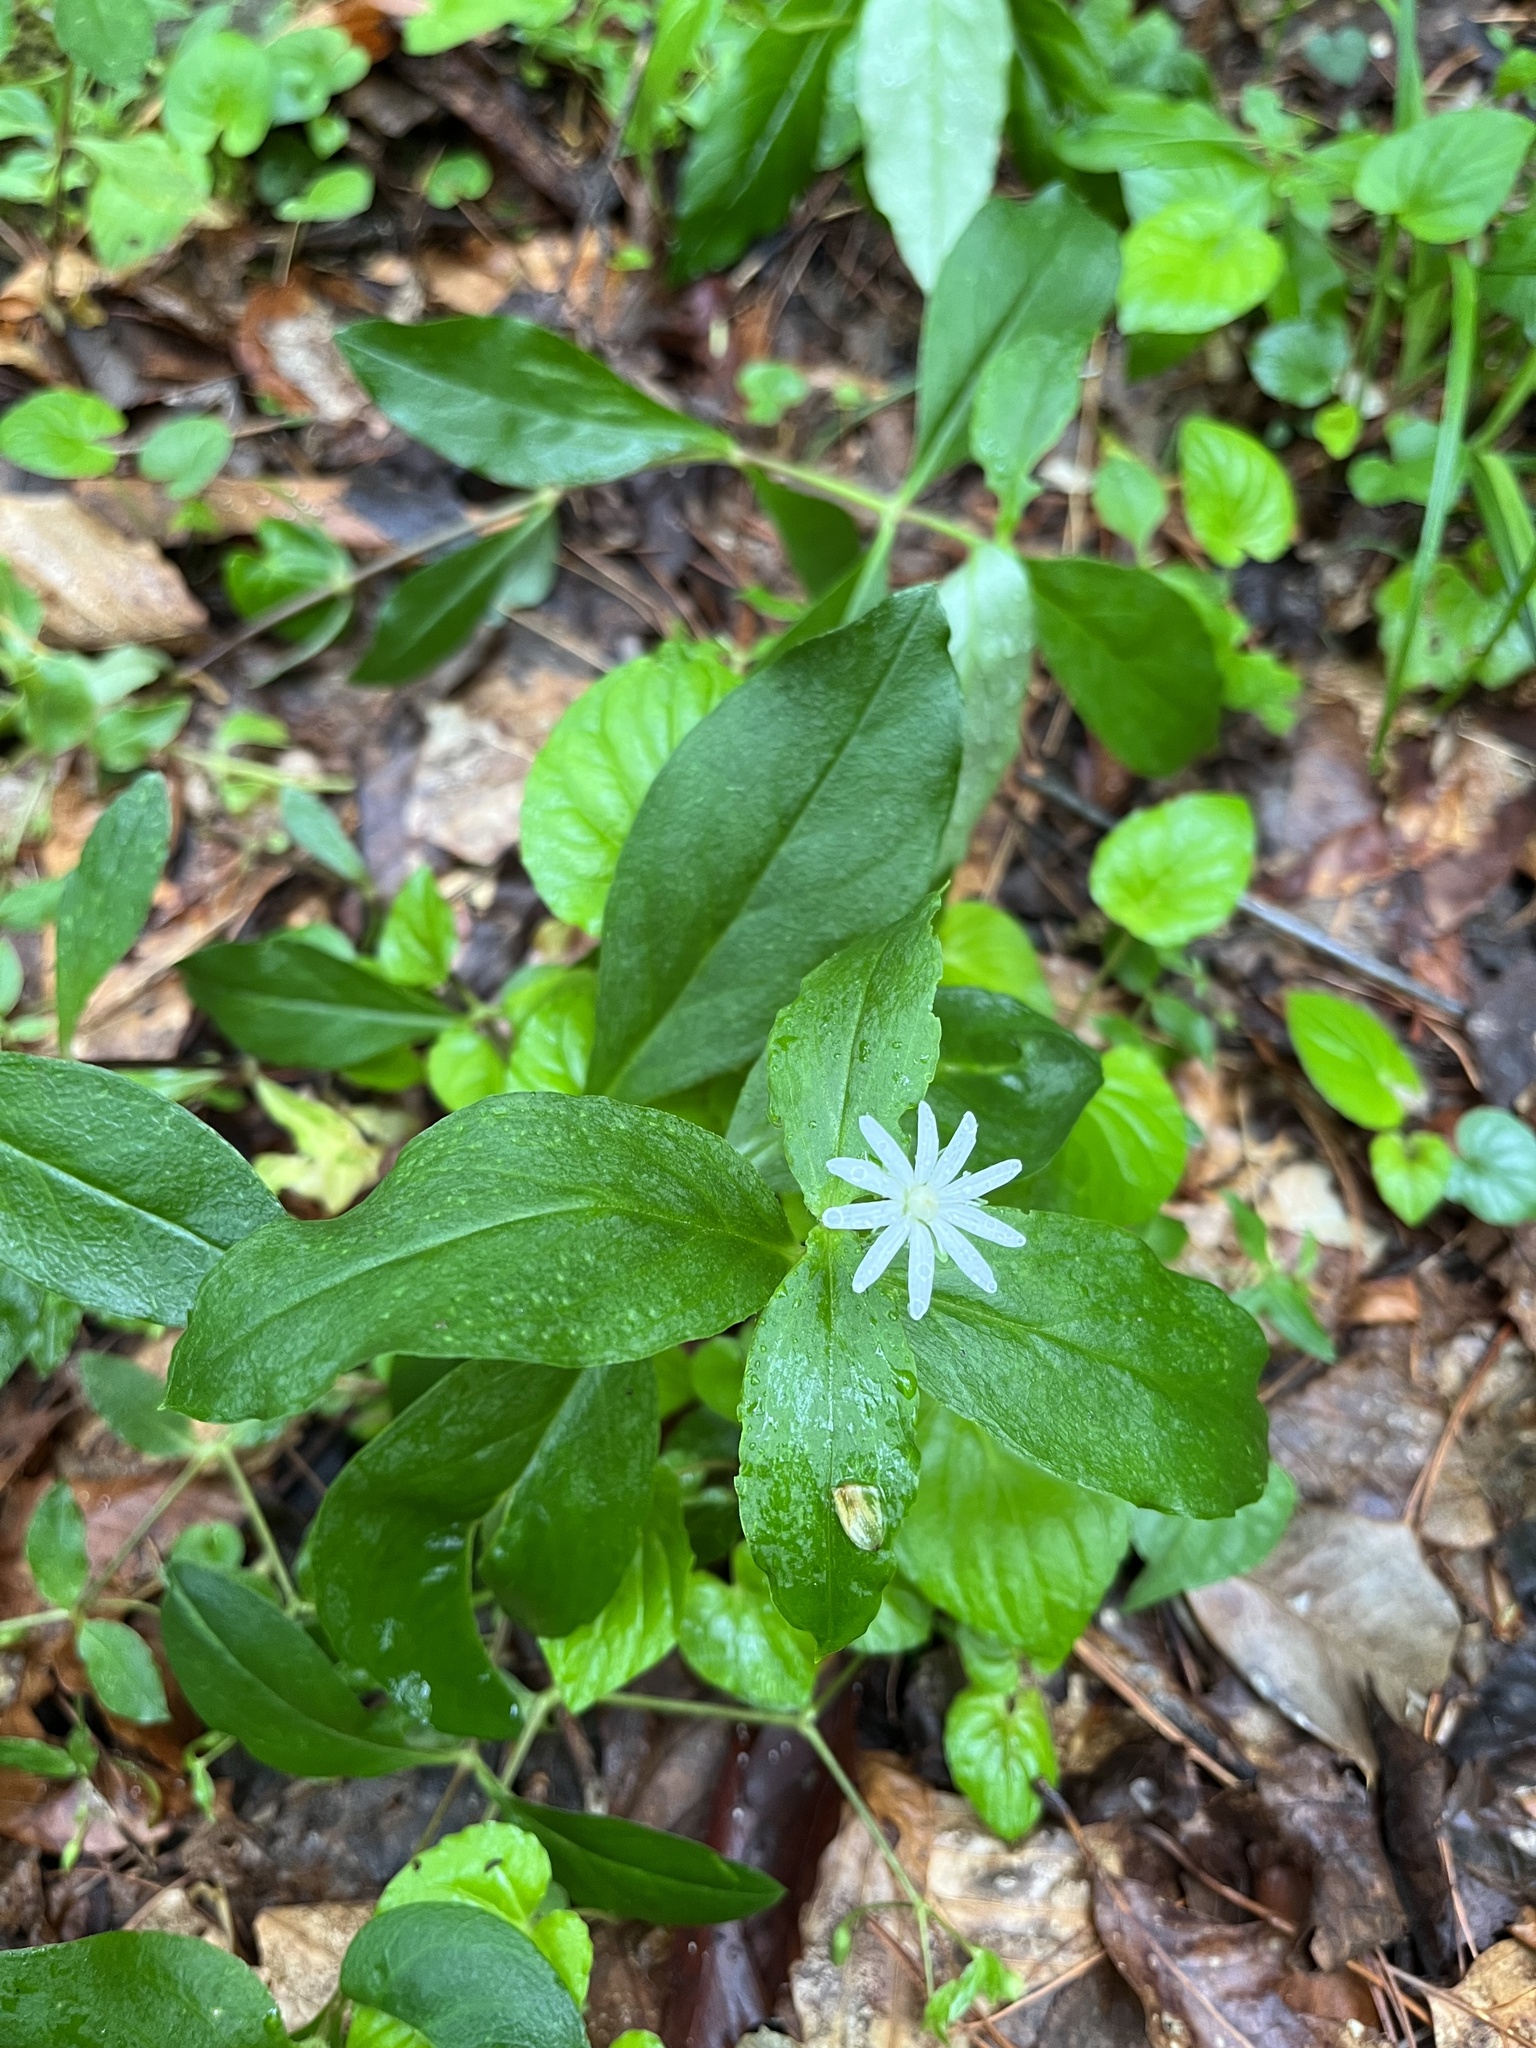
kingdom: Plantae
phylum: Tracheophyta
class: Magnoliopsida
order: Caryophyllales
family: Caryophyllaceae
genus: Stellaria
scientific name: Stellaria pubera
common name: Star chickweed
